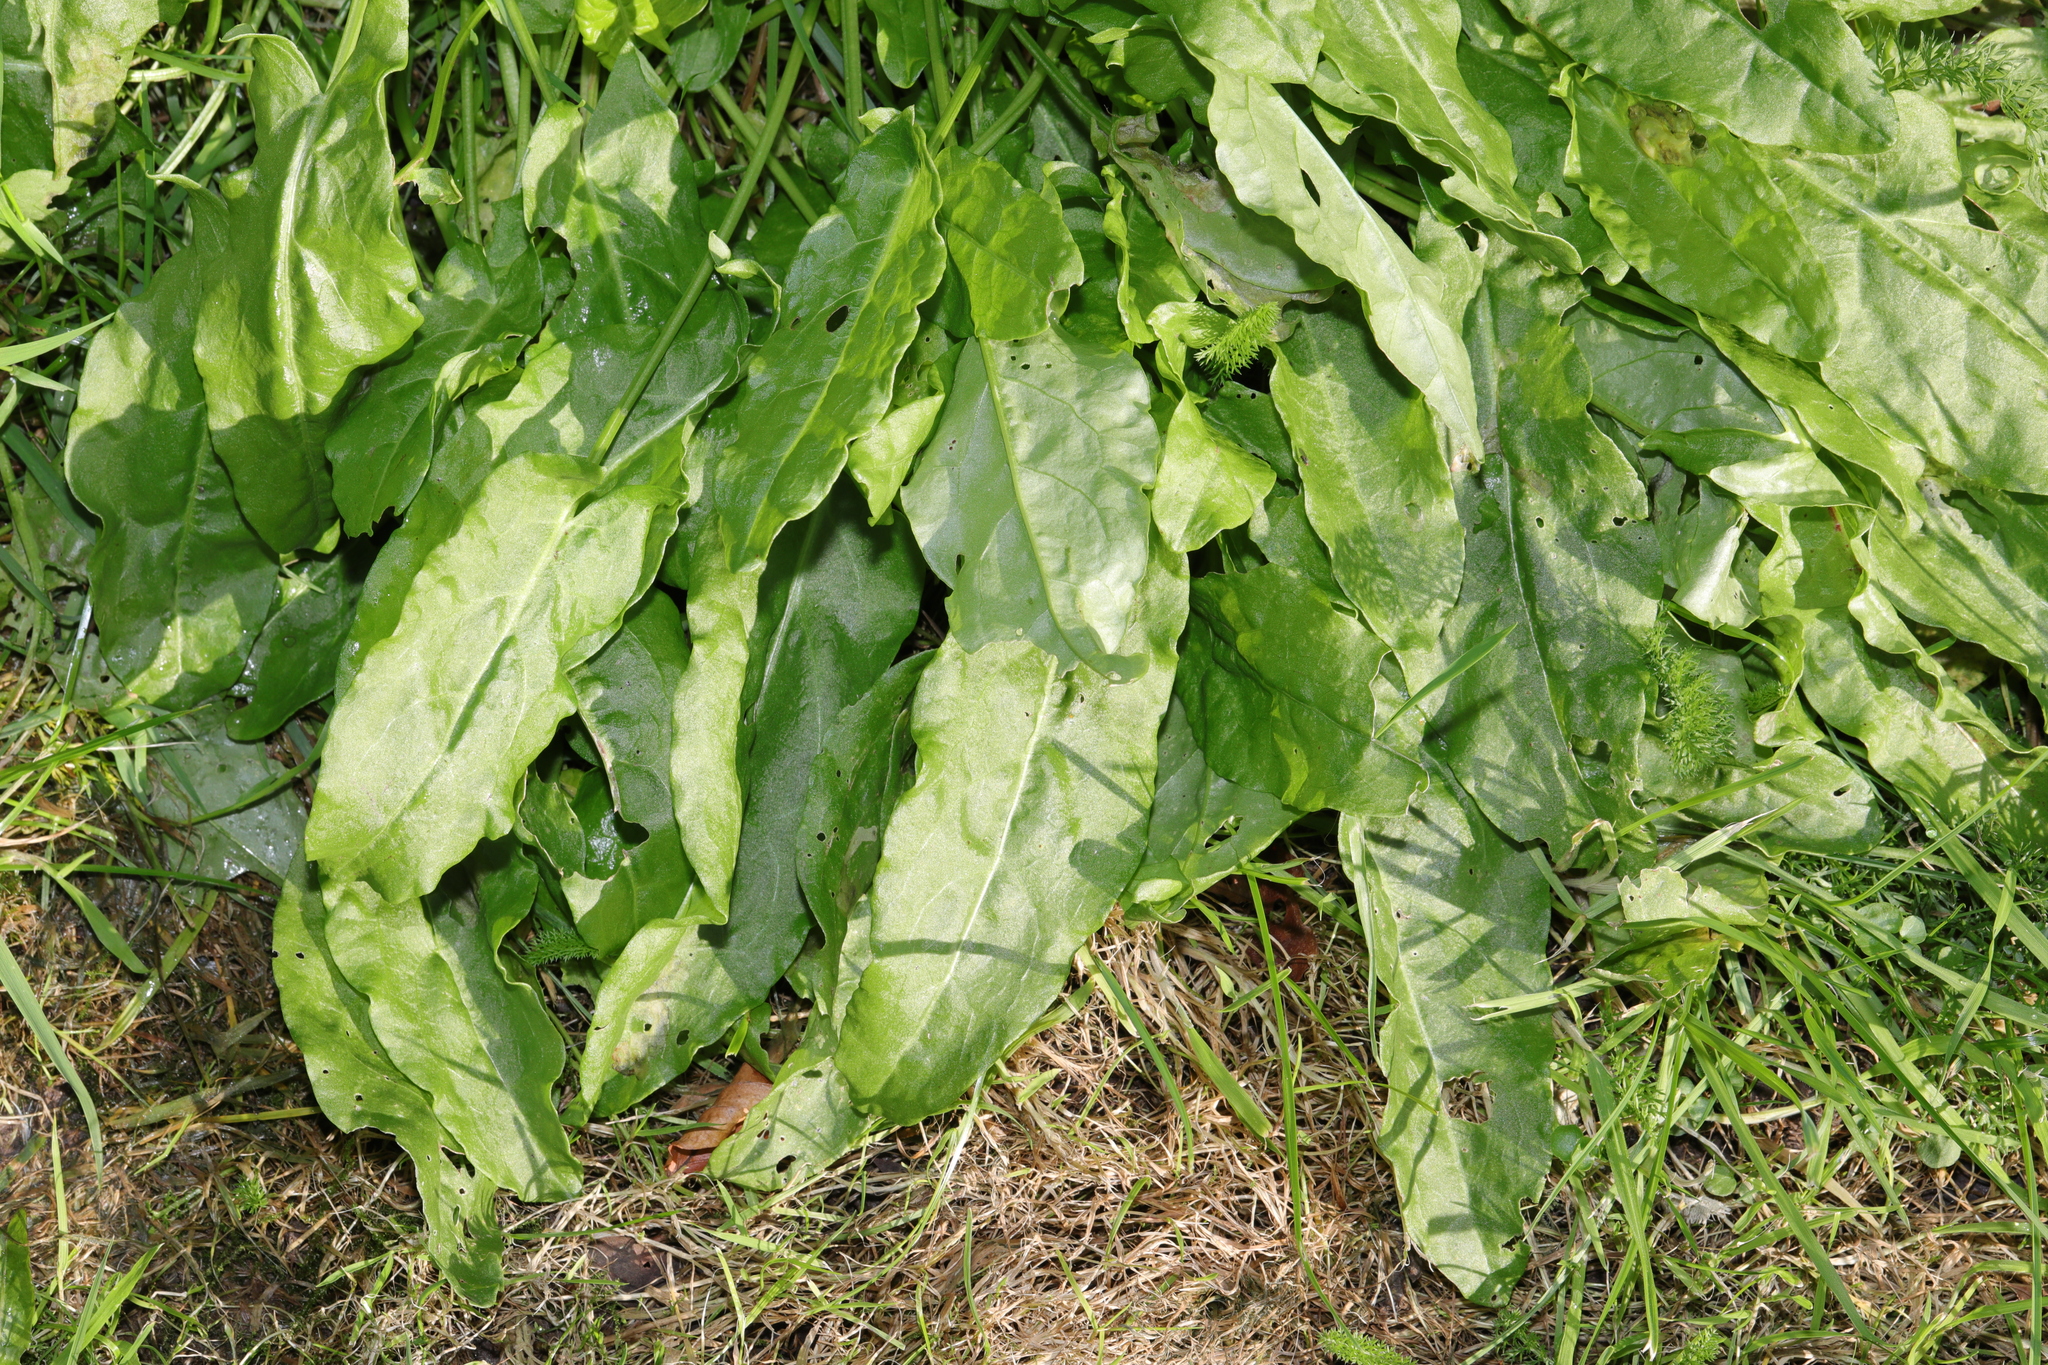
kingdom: Plantae
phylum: Tracheophyta
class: Magnoliopsida
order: Caryophyllales
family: Polygonaceae
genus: Rumex
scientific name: Rumex acetosa
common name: Garden sorrel
